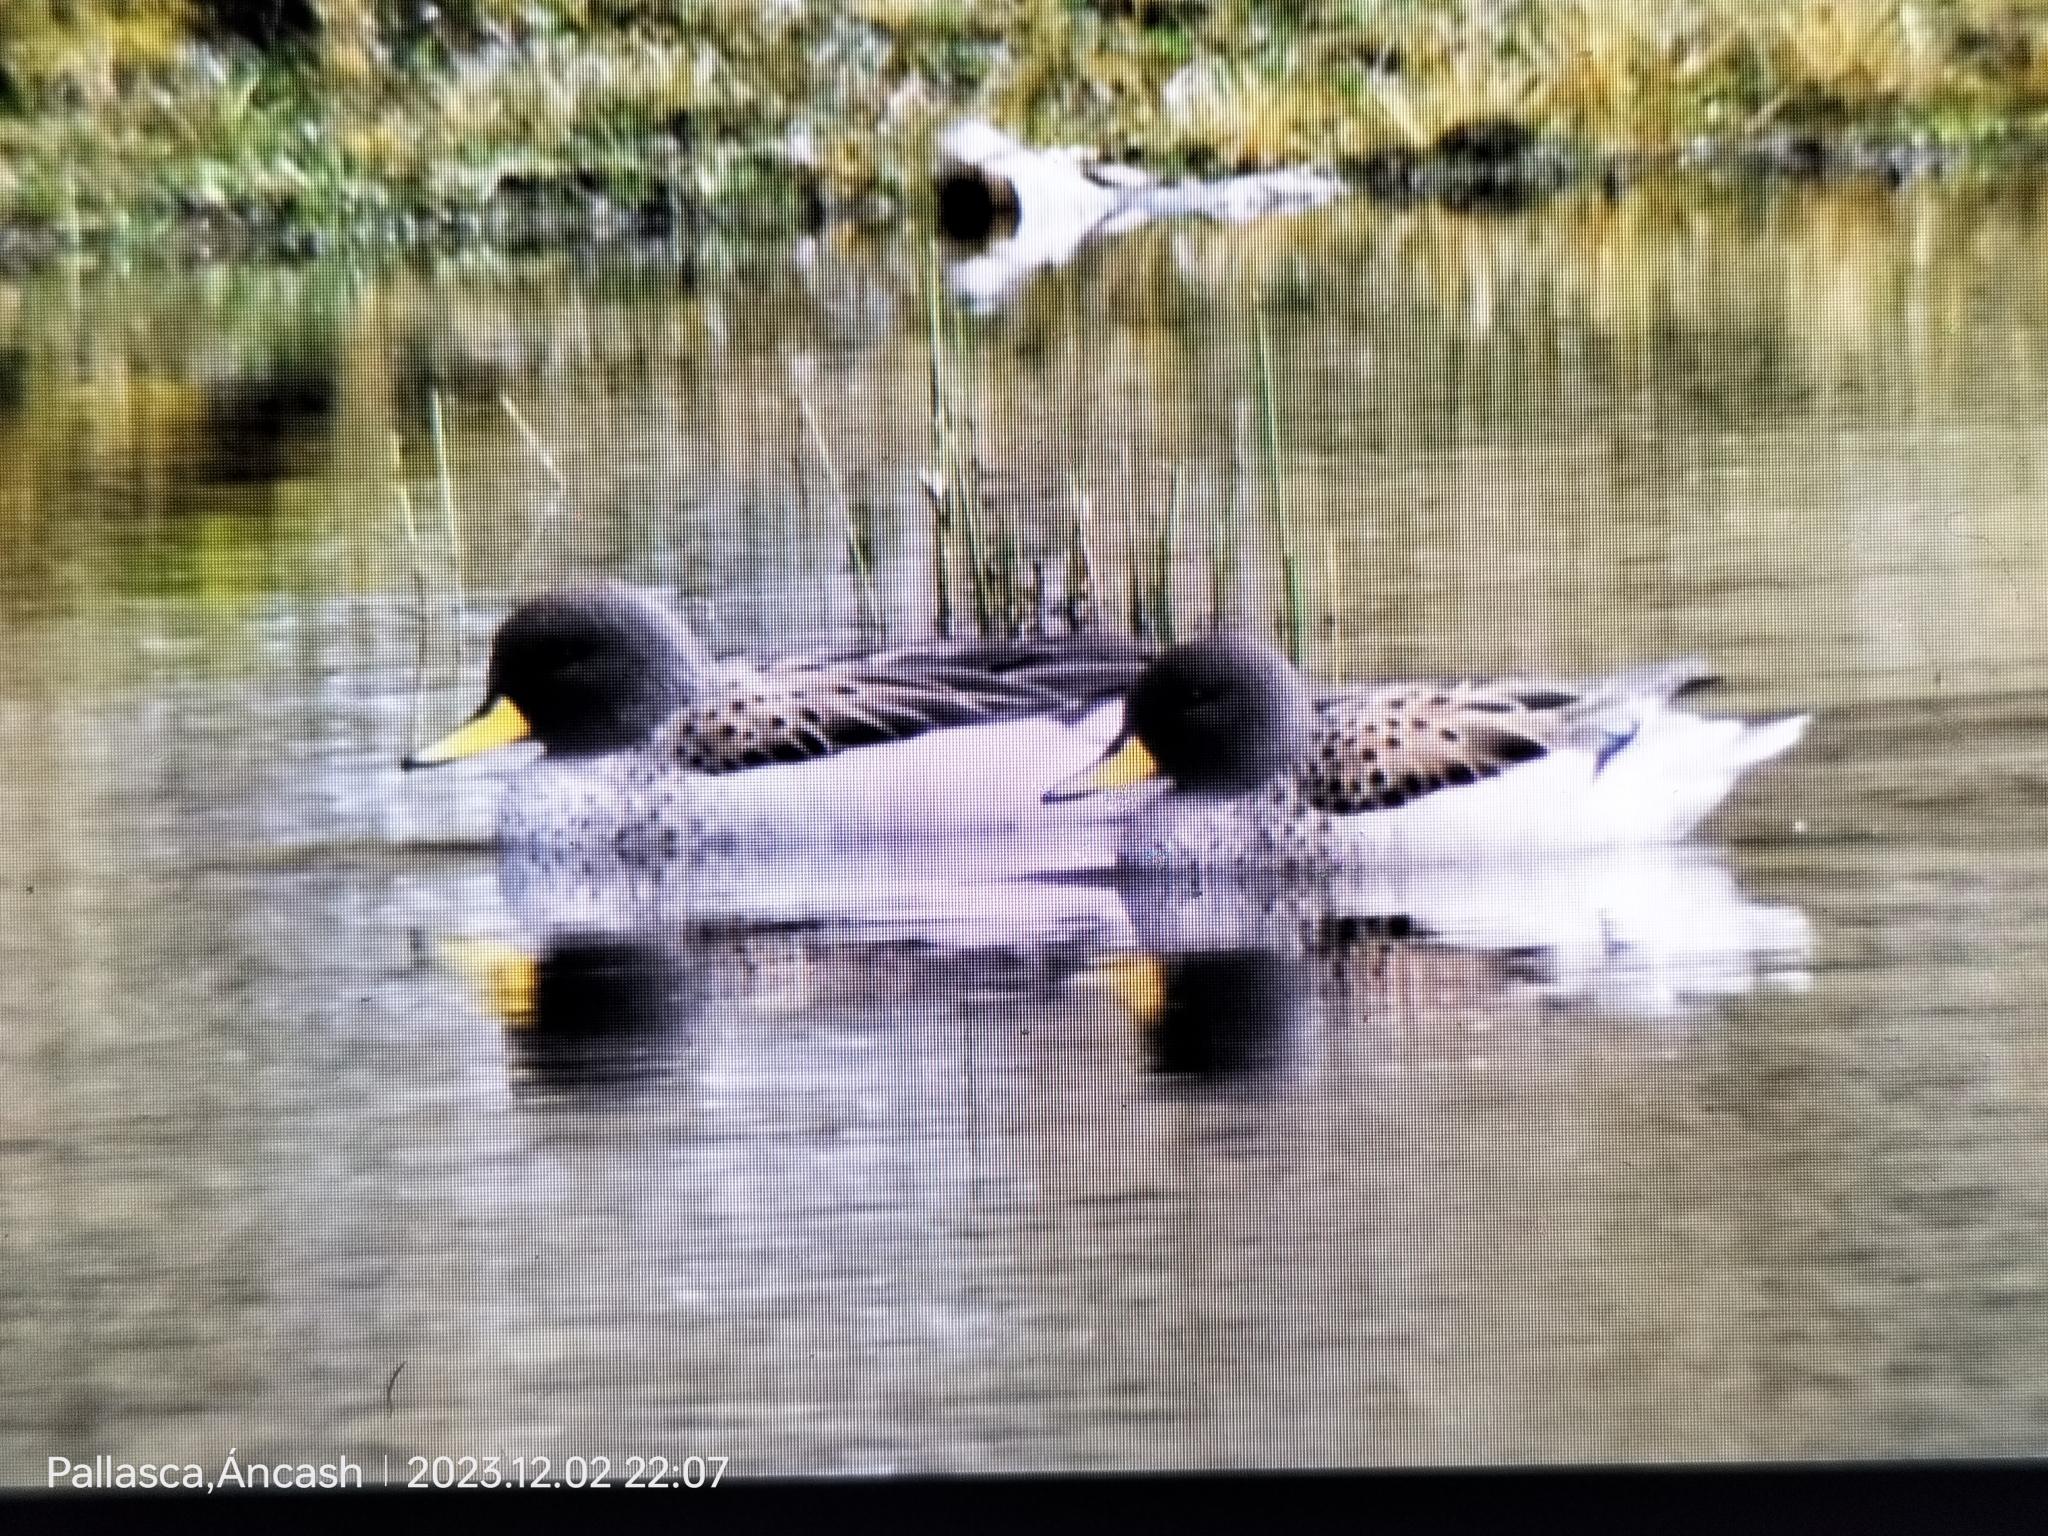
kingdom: Animalia
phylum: Chordata
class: Aves
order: Anseriformes
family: Anatidae
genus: Anas
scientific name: Anas flavirostris
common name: Yellow-billed teal
